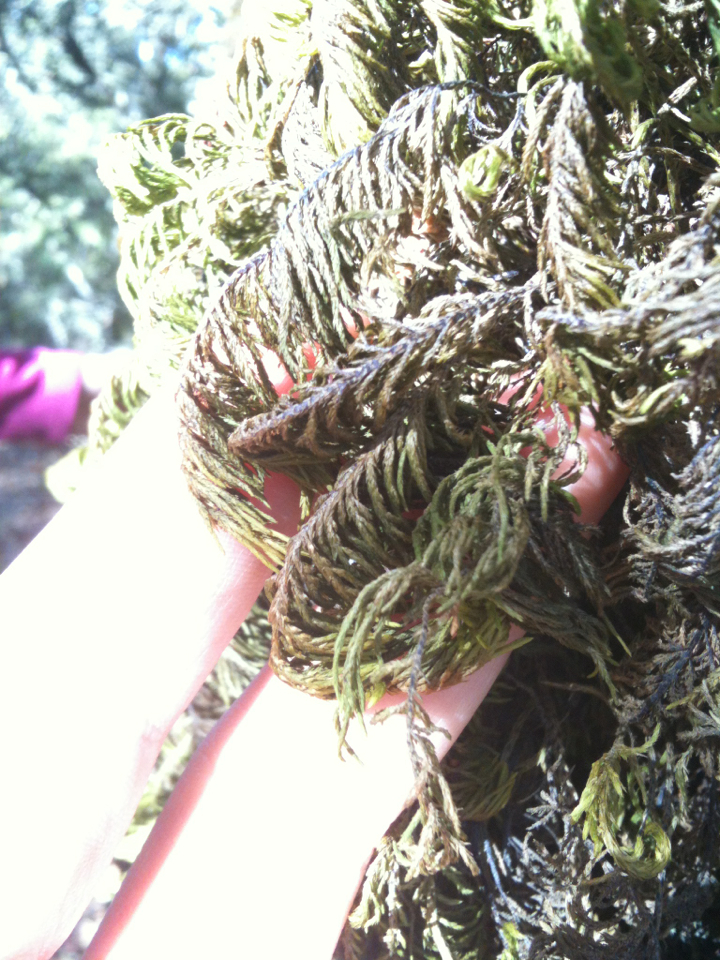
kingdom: Plantae
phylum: Bryophyta
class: Bryopsida
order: Hypnales
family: Cryphaeaceae
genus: Dendroalsia
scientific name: Dendroalsia abietina
